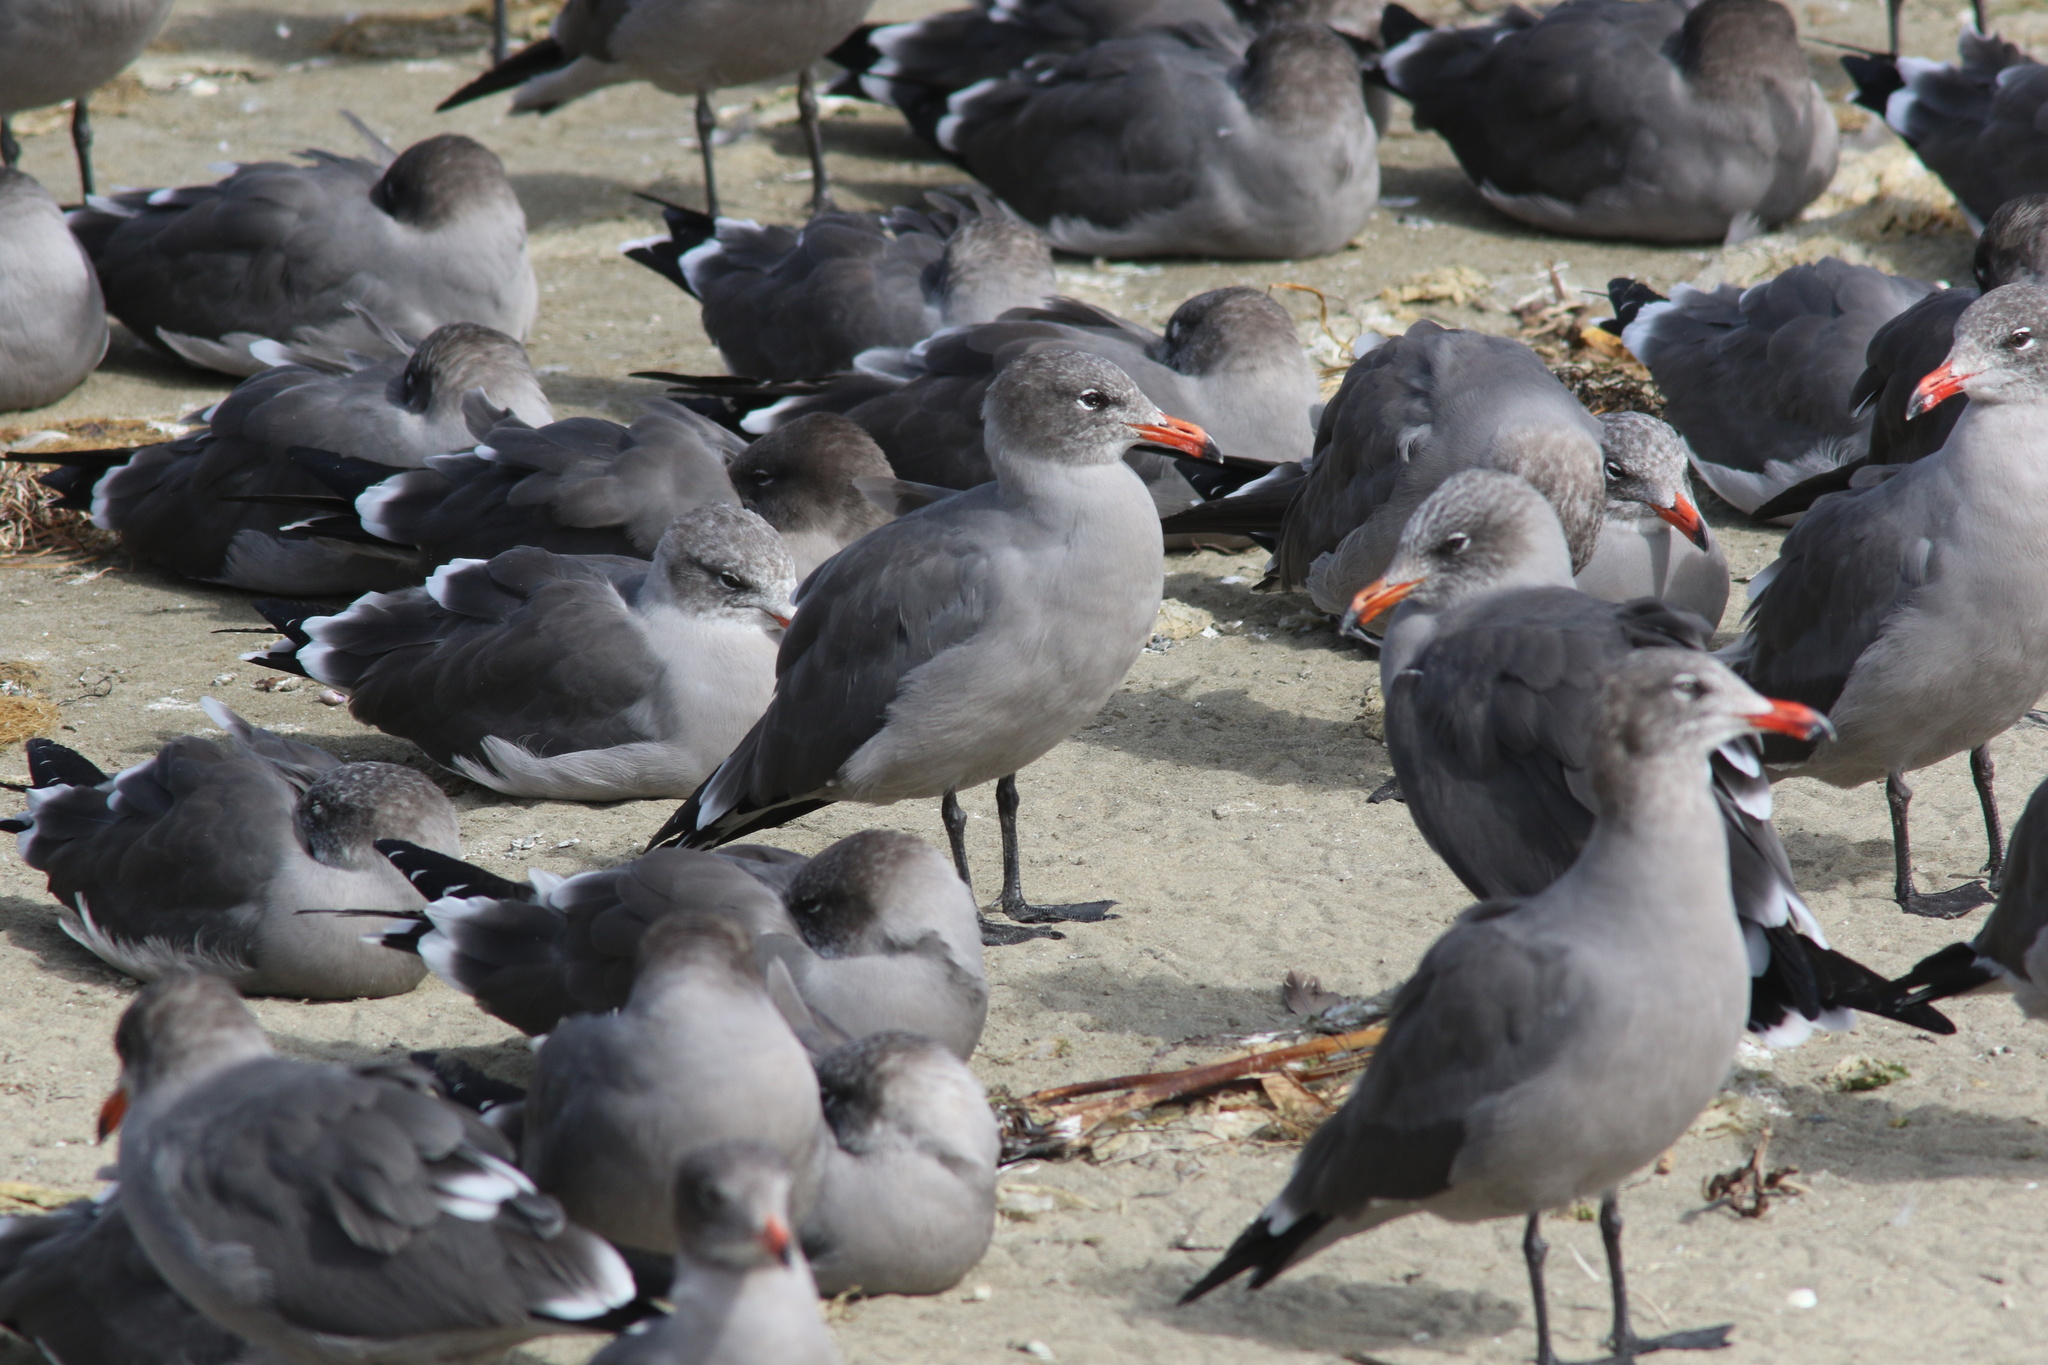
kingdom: Animalia
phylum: Chordata
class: Aves
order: Charadriiformes
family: Laridae
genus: Larus
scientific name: Larus heermanni
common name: Heermann's gull
